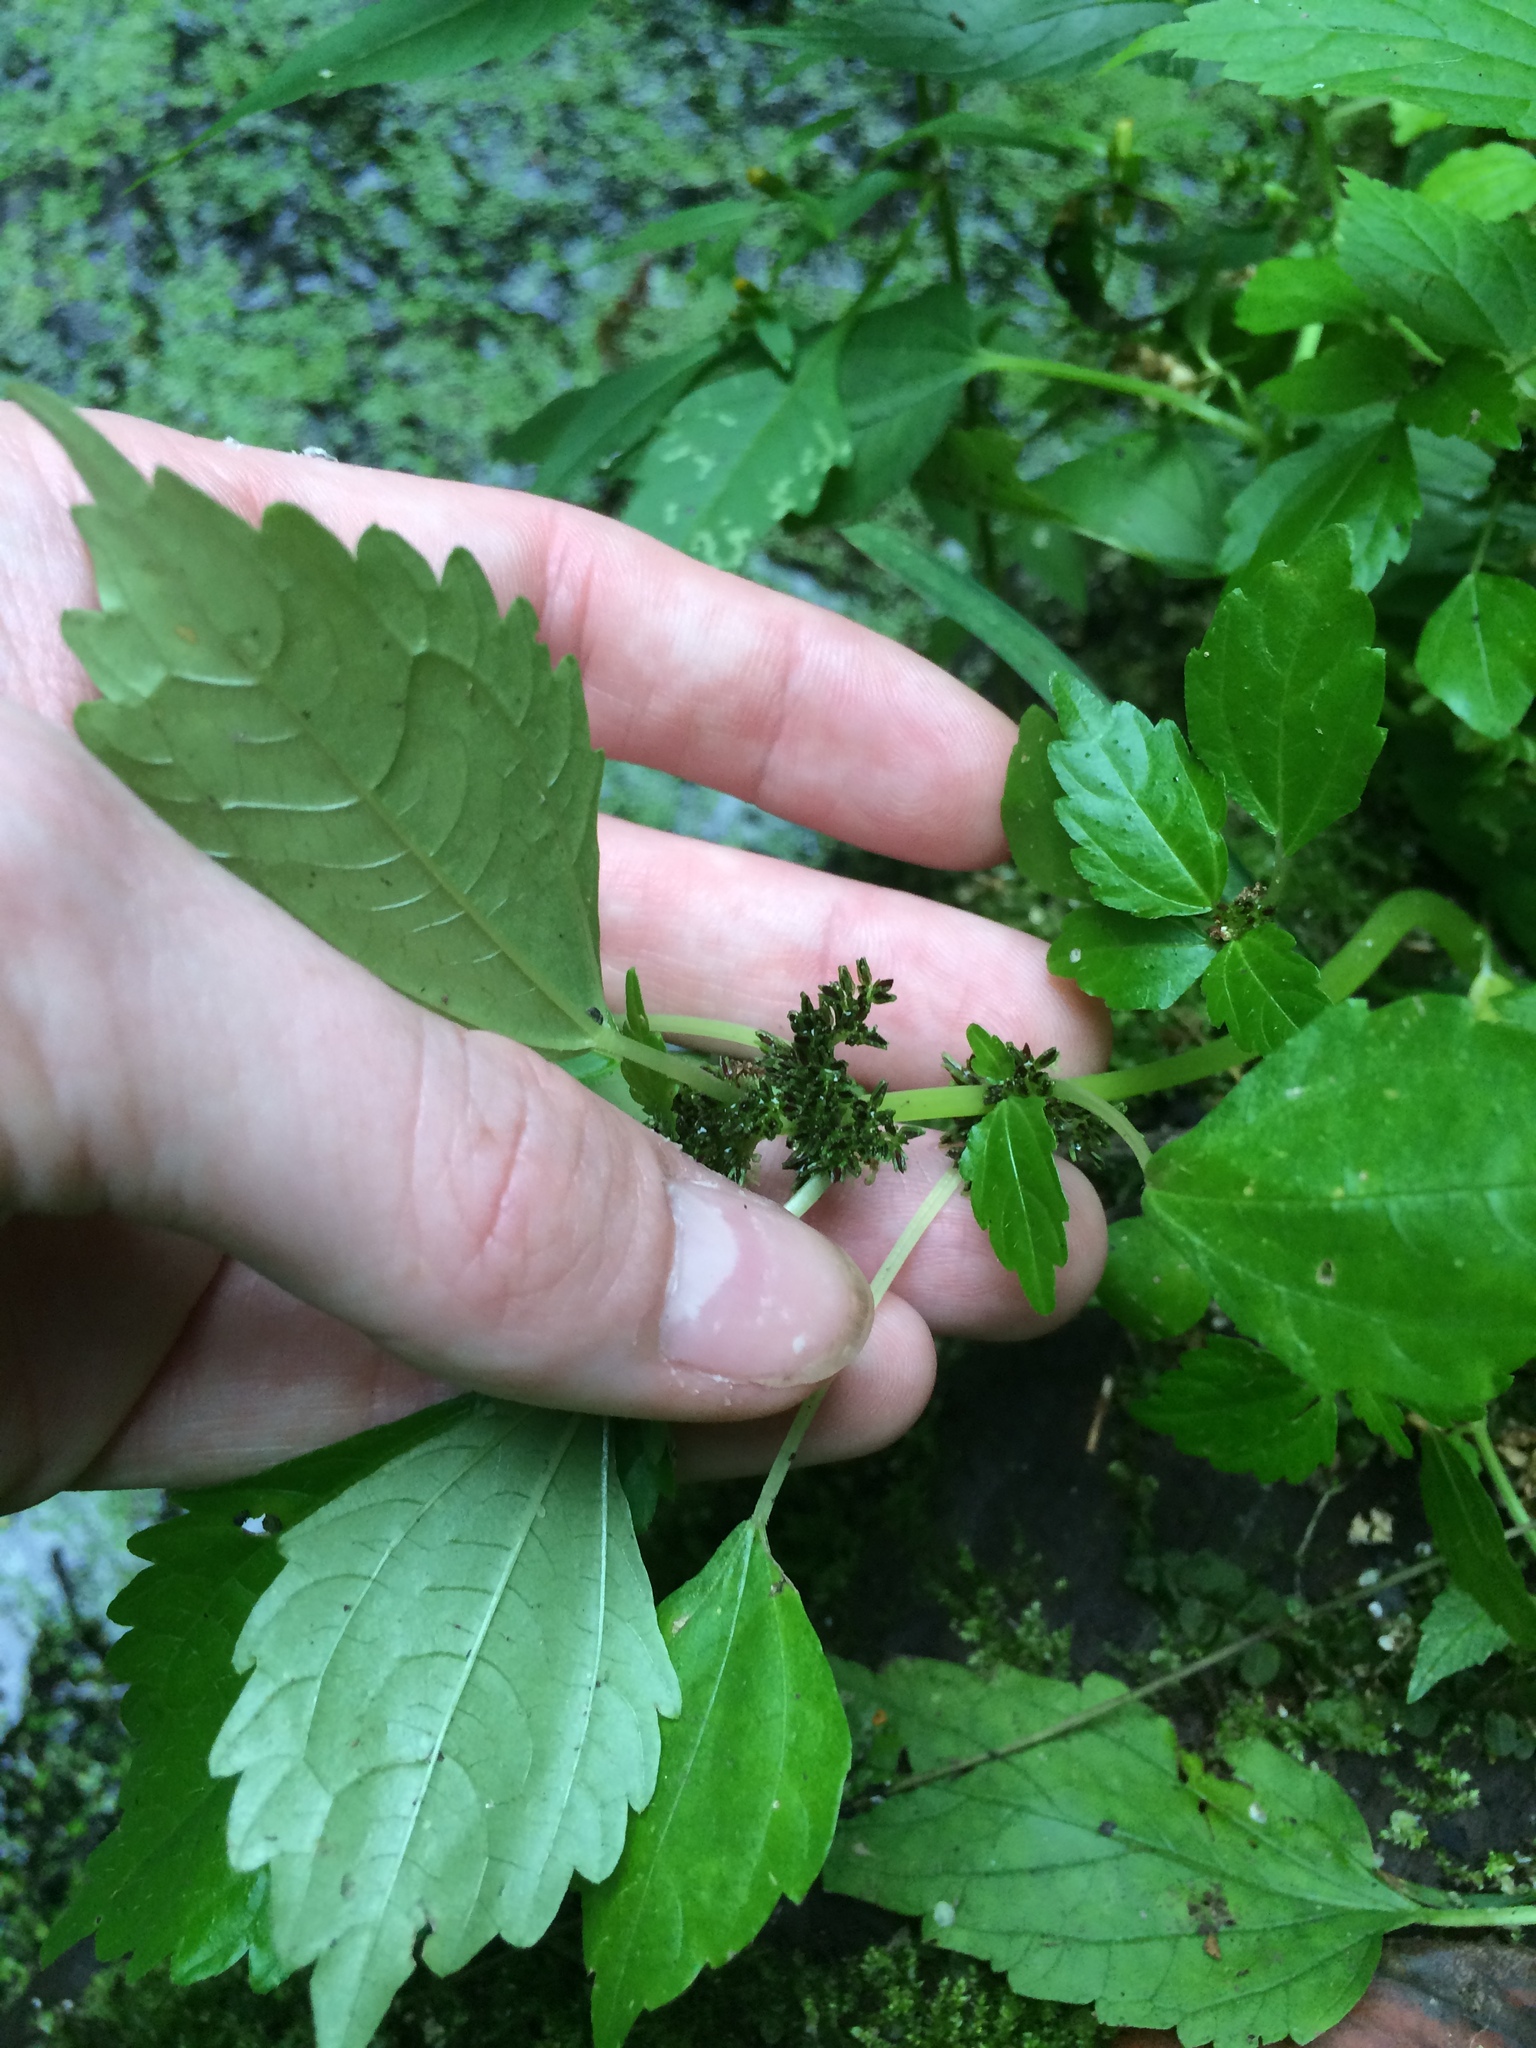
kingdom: Plantae
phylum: Tracheophyta
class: Magnoliopsida
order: Rosales
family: Urticaceae
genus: Pilea
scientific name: Pilea fontana
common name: Clearweed
